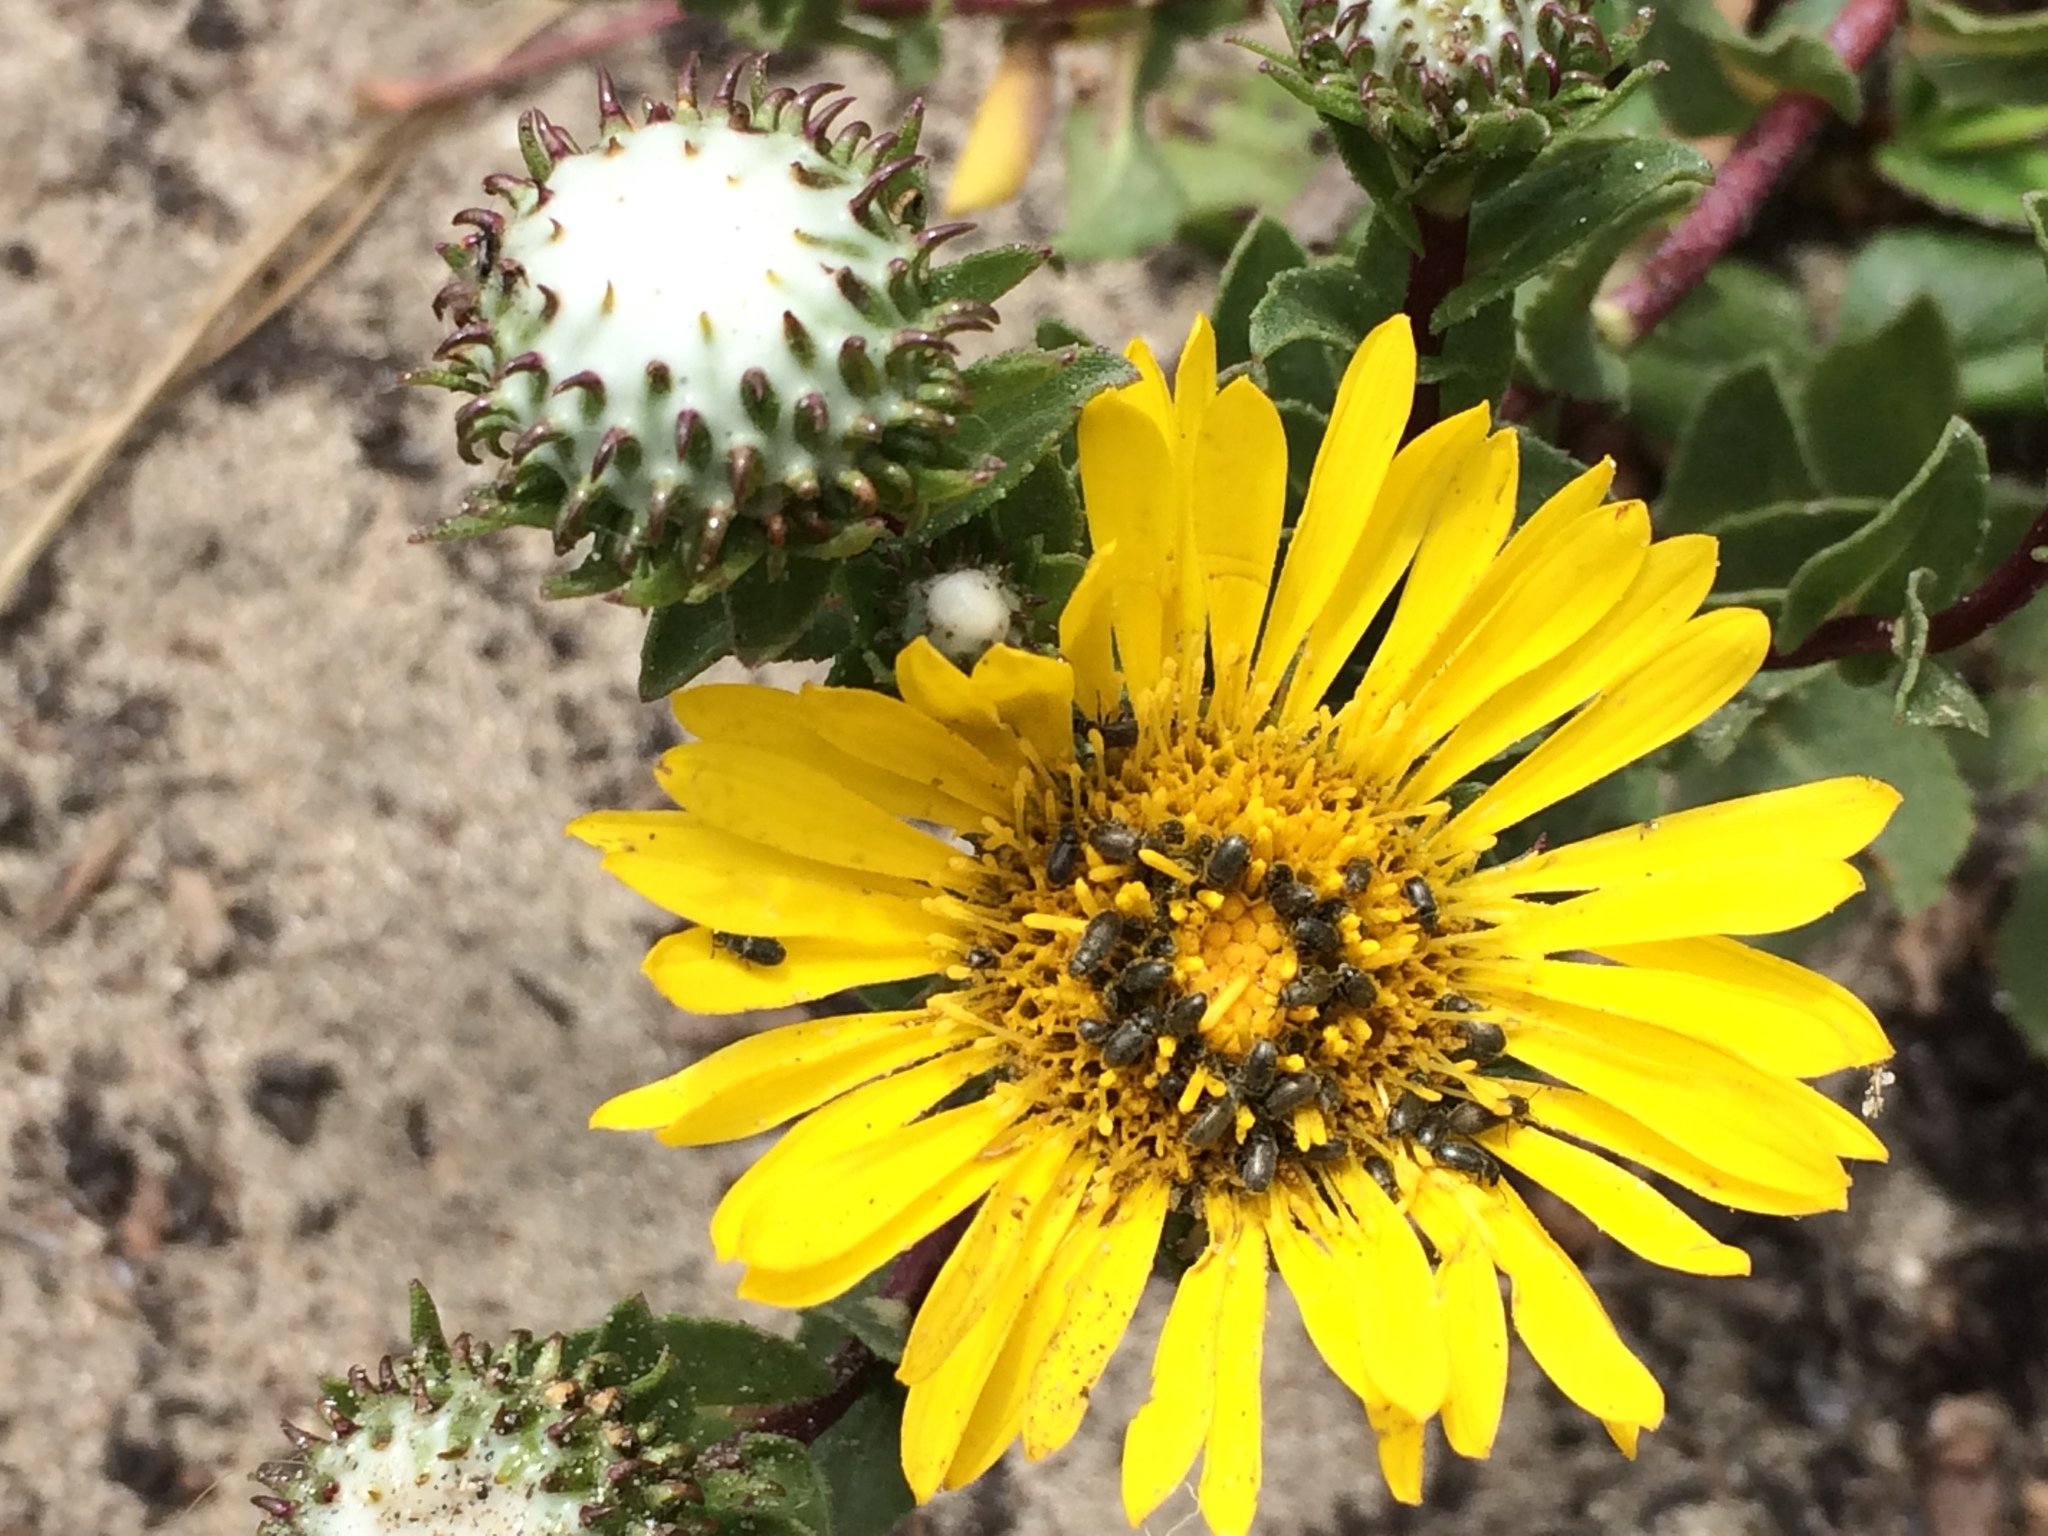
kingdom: Plantae
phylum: Tracheophyta
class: Magnoliopsida
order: Asterales
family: Asteraceae
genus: Grindelia
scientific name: Grindelia hirsutula
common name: Hairy gumweed
